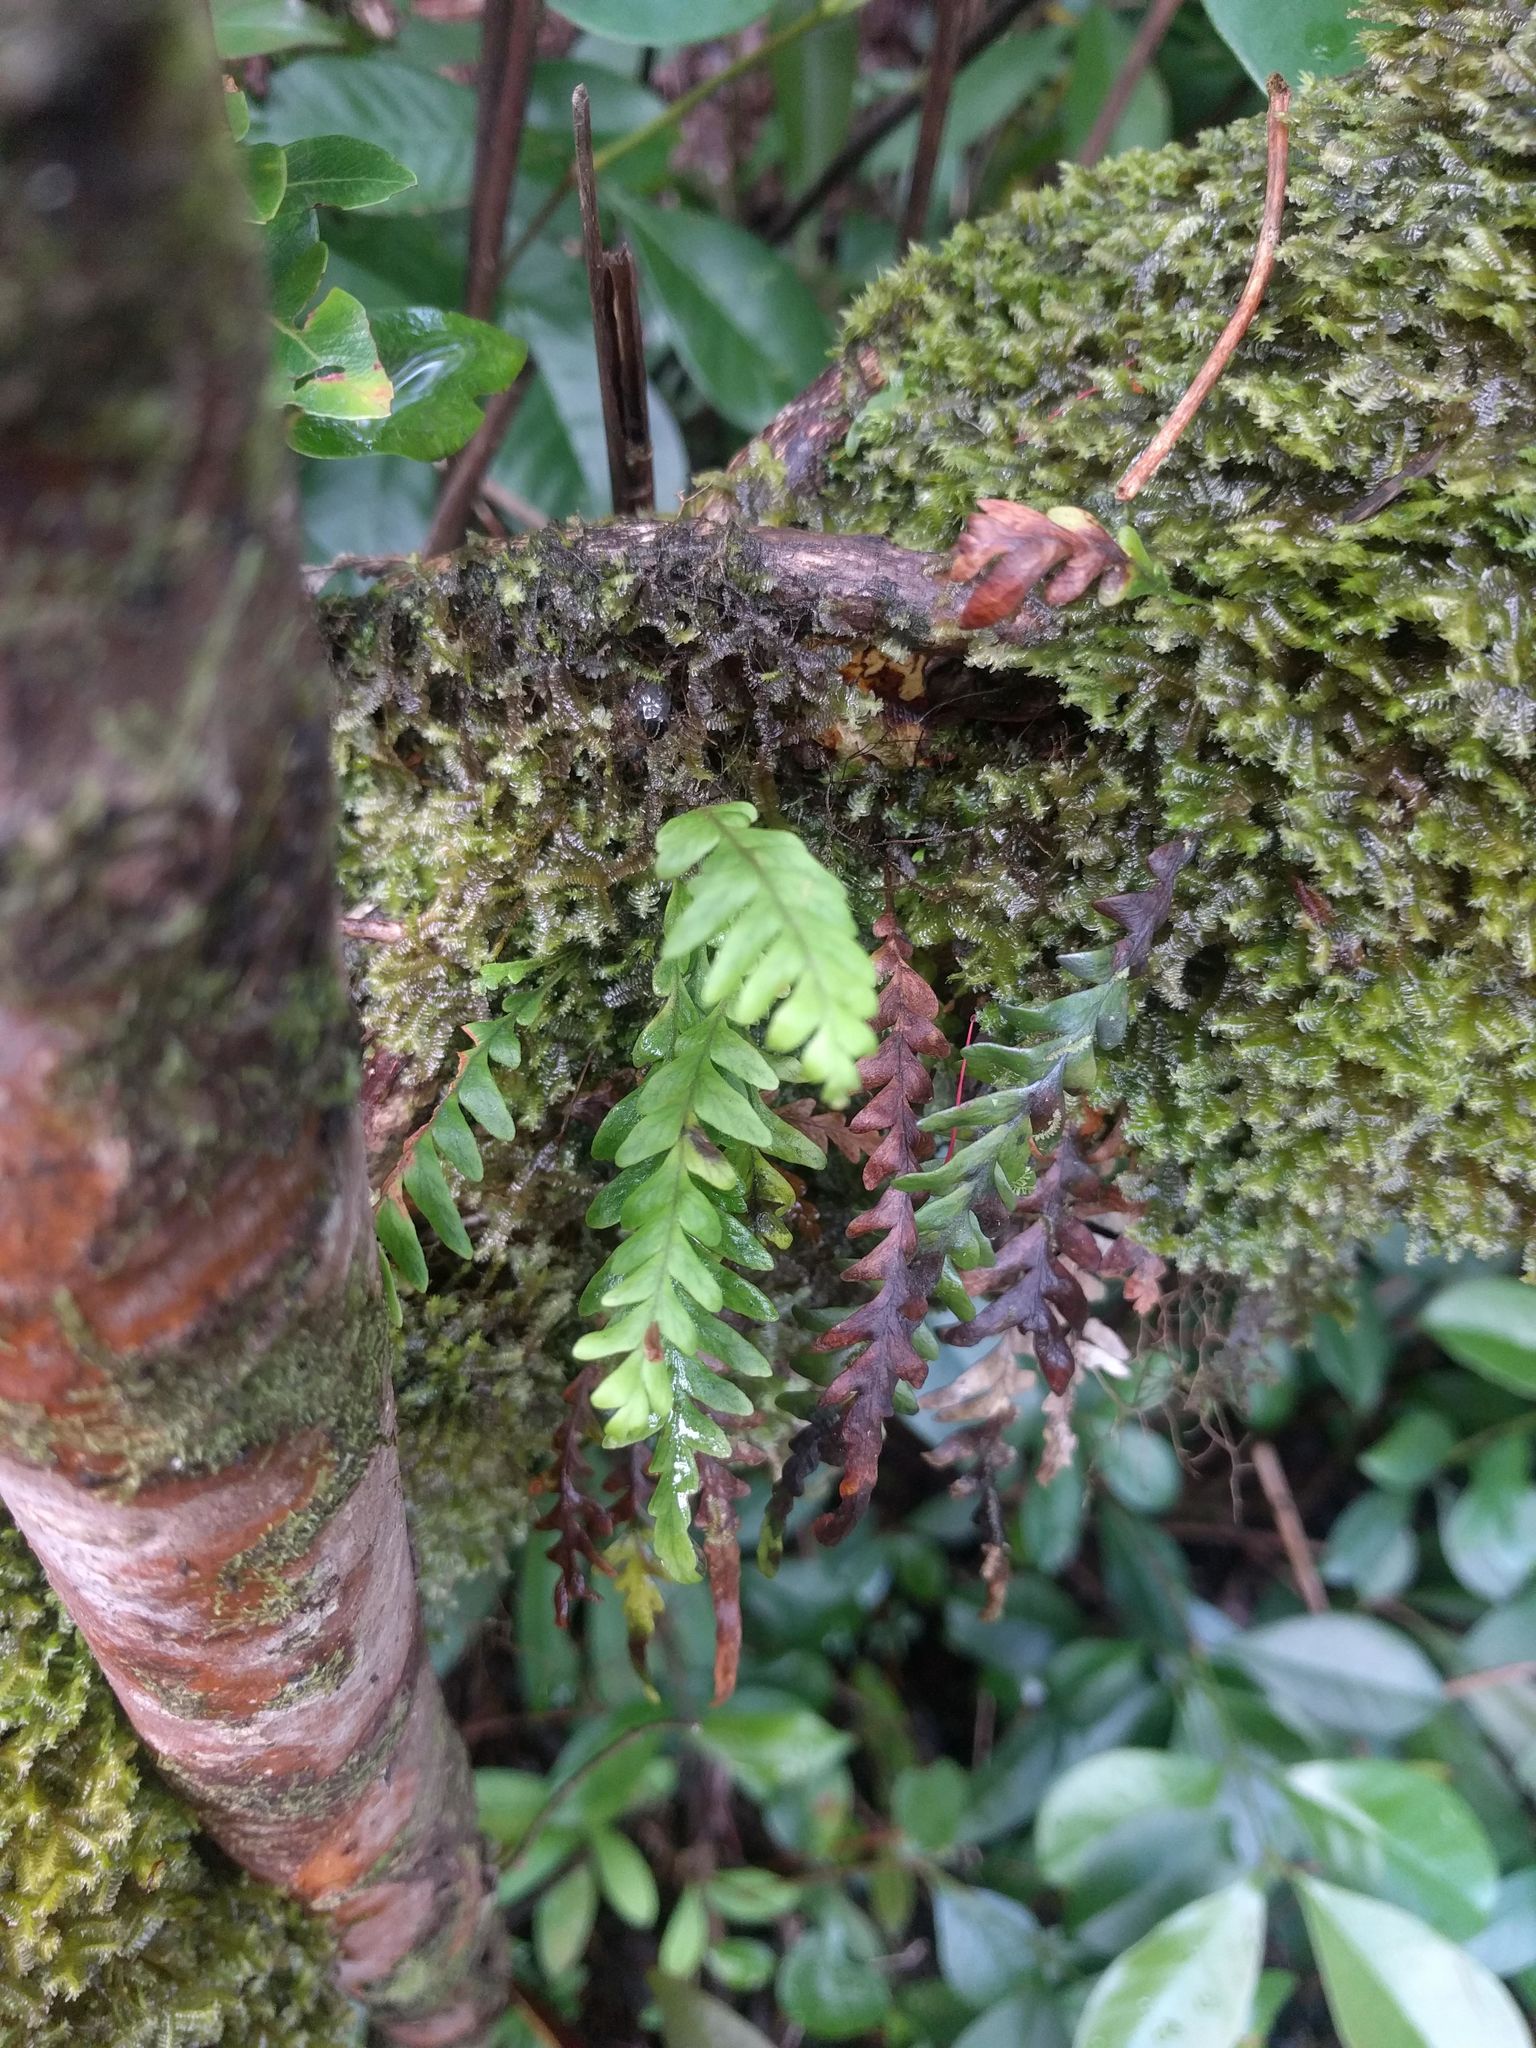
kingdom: Plantae
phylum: Tracheophyta
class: Polypodiopsida
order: Polypodiales
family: Polypodiaceae
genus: Adenophorus
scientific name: Adenophorus pinnatifidus
